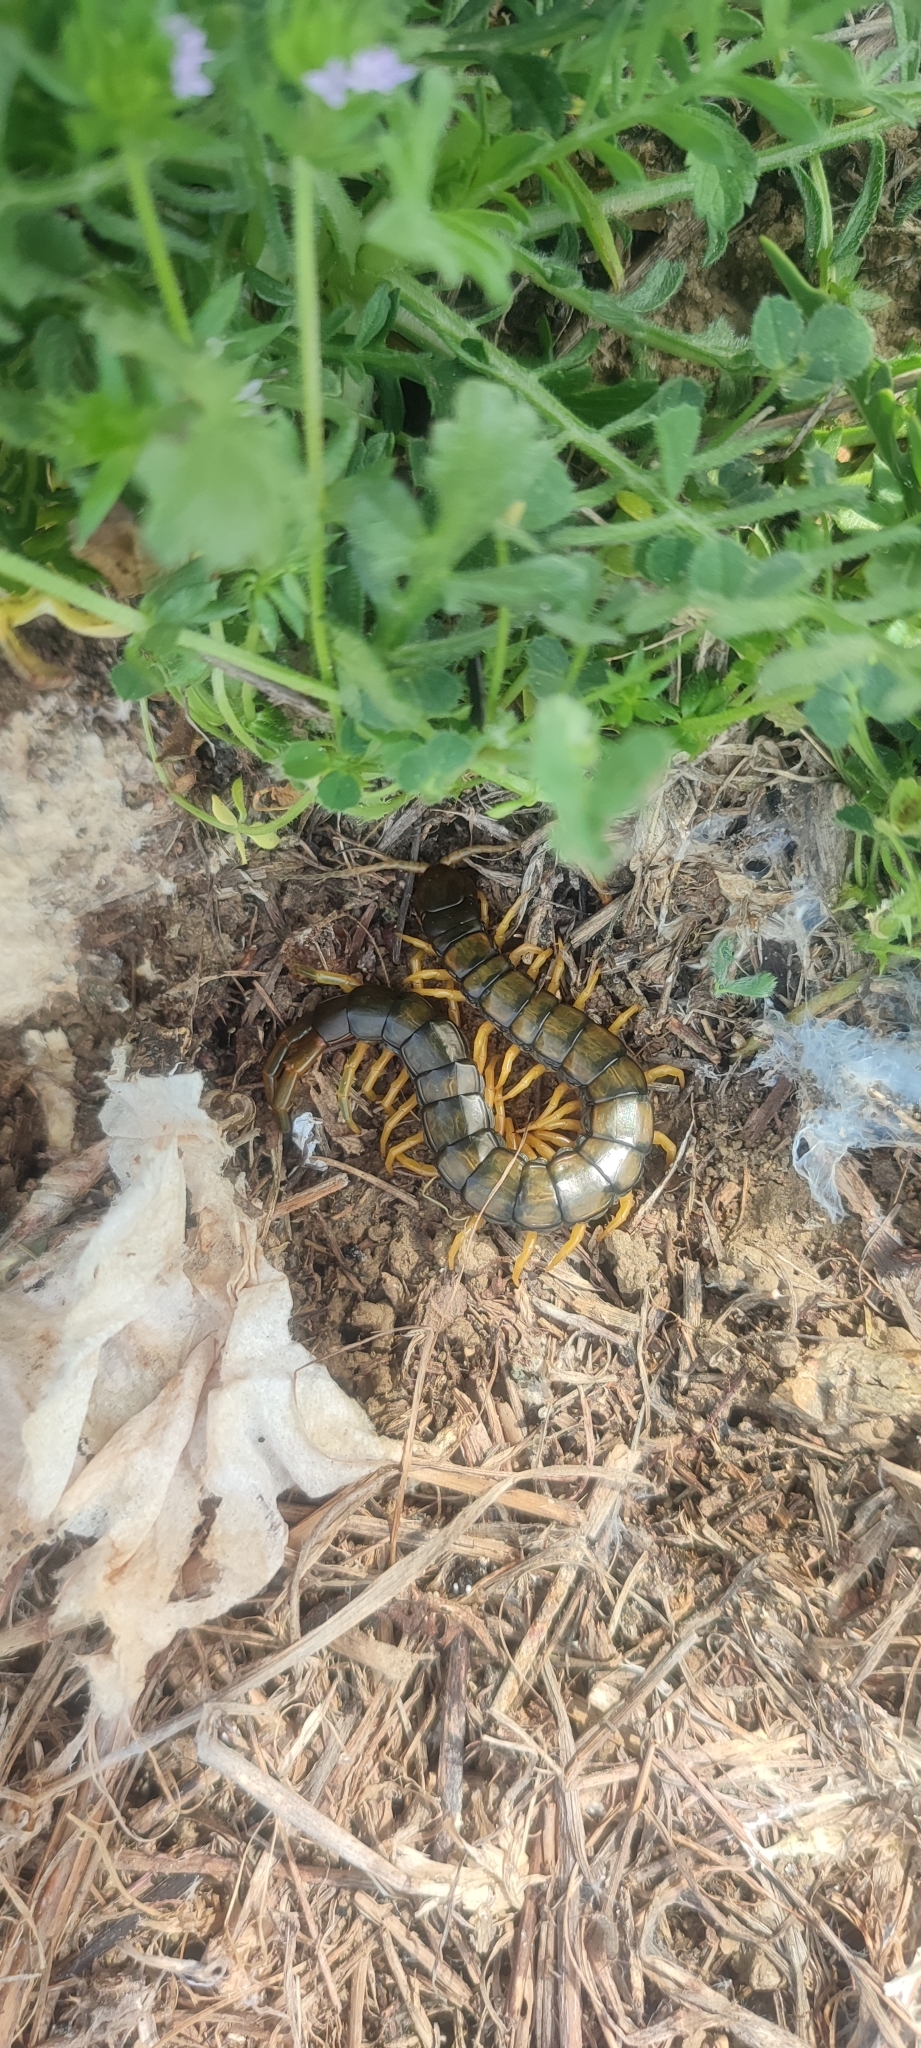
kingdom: Animalia
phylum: Arthropoda
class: Chilopoda
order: Scolopendromorpha
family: Scolopendridae
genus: Scolopendra
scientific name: Scolopendra cingulata
